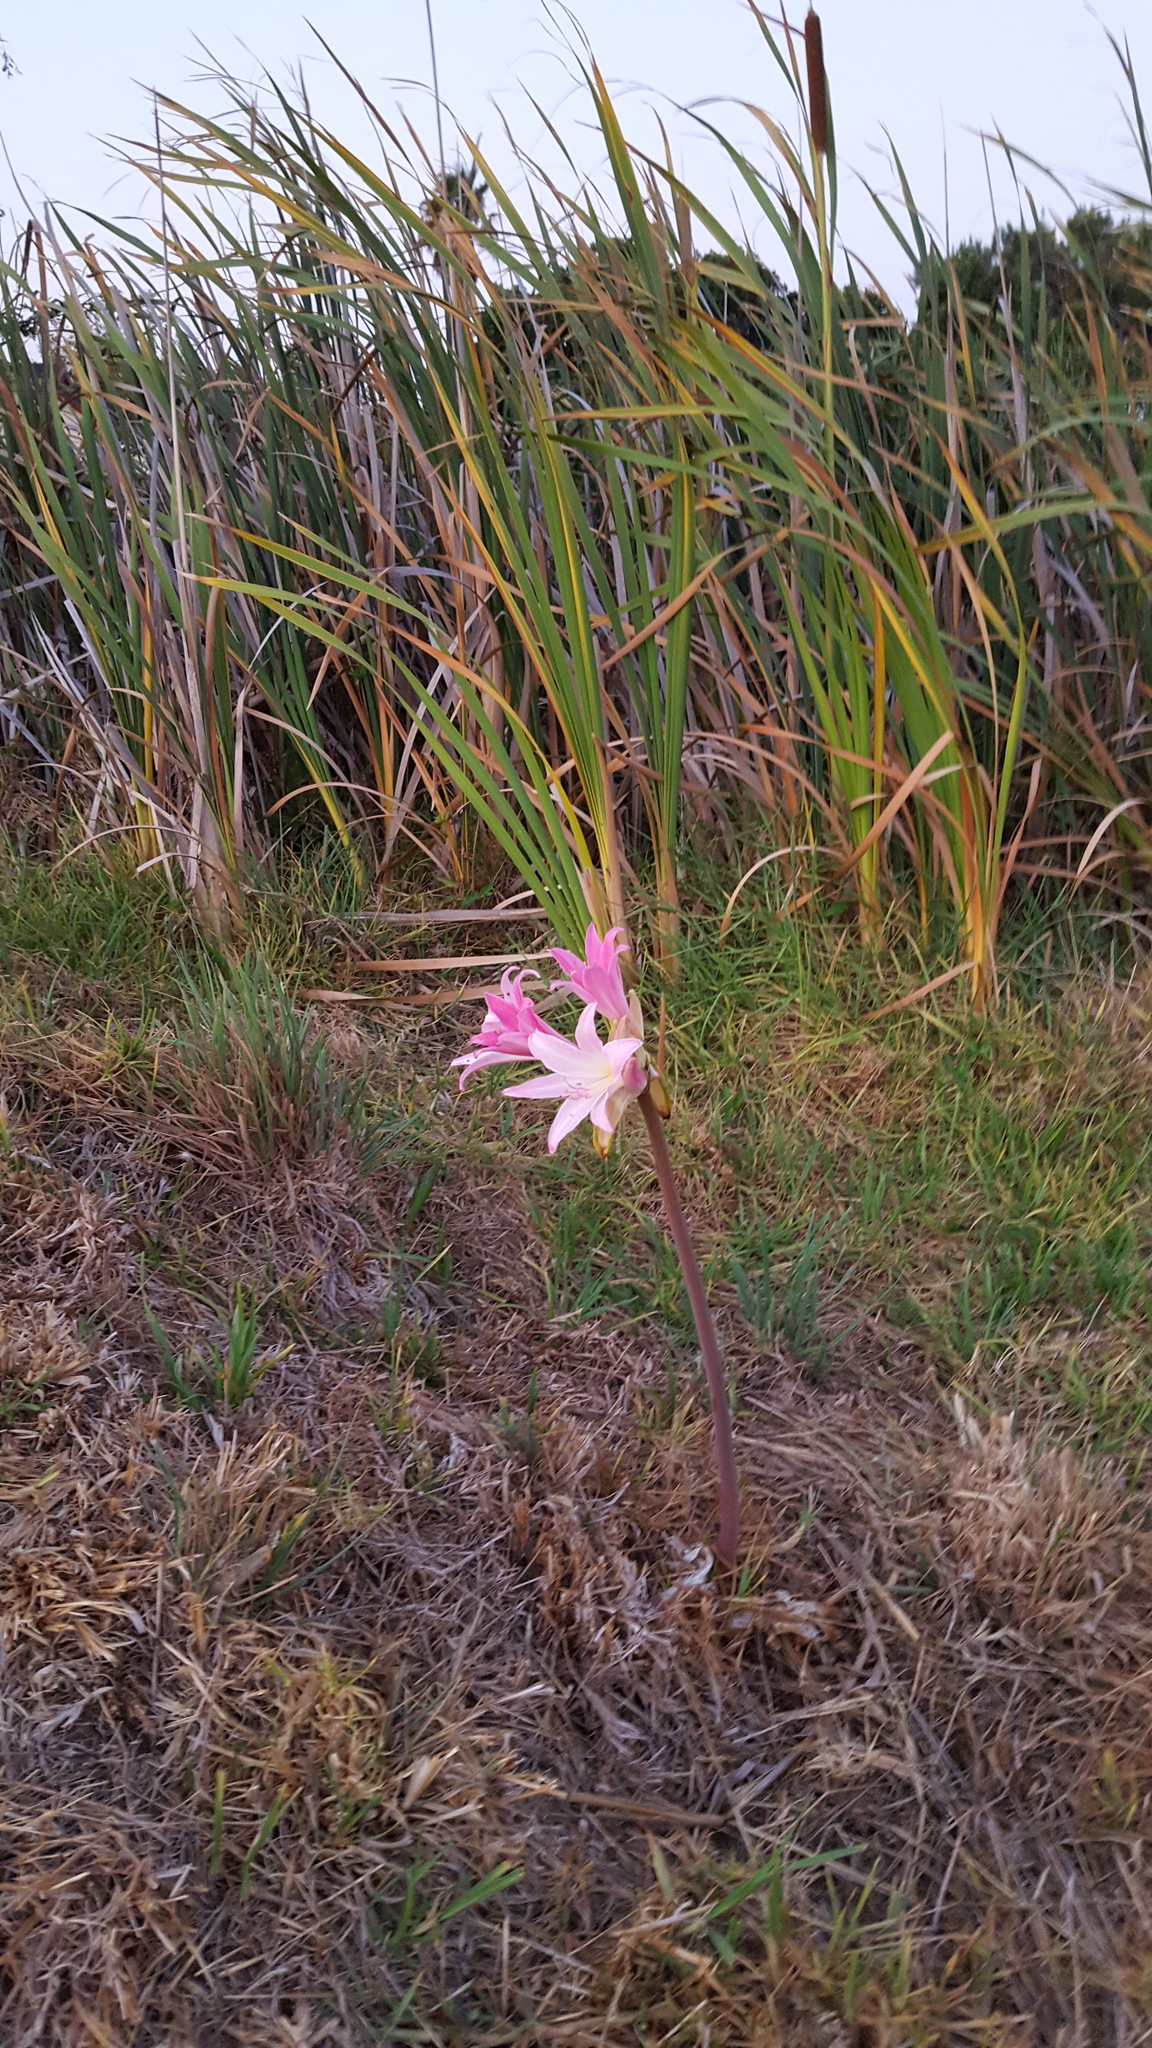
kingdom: Plantae
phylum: Tracheophyta
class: Liliopsida
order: Asparagales
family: Amaryllidaceae
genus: Amaryllis
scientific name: Amaryllis belladonna
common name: Jersey lily
